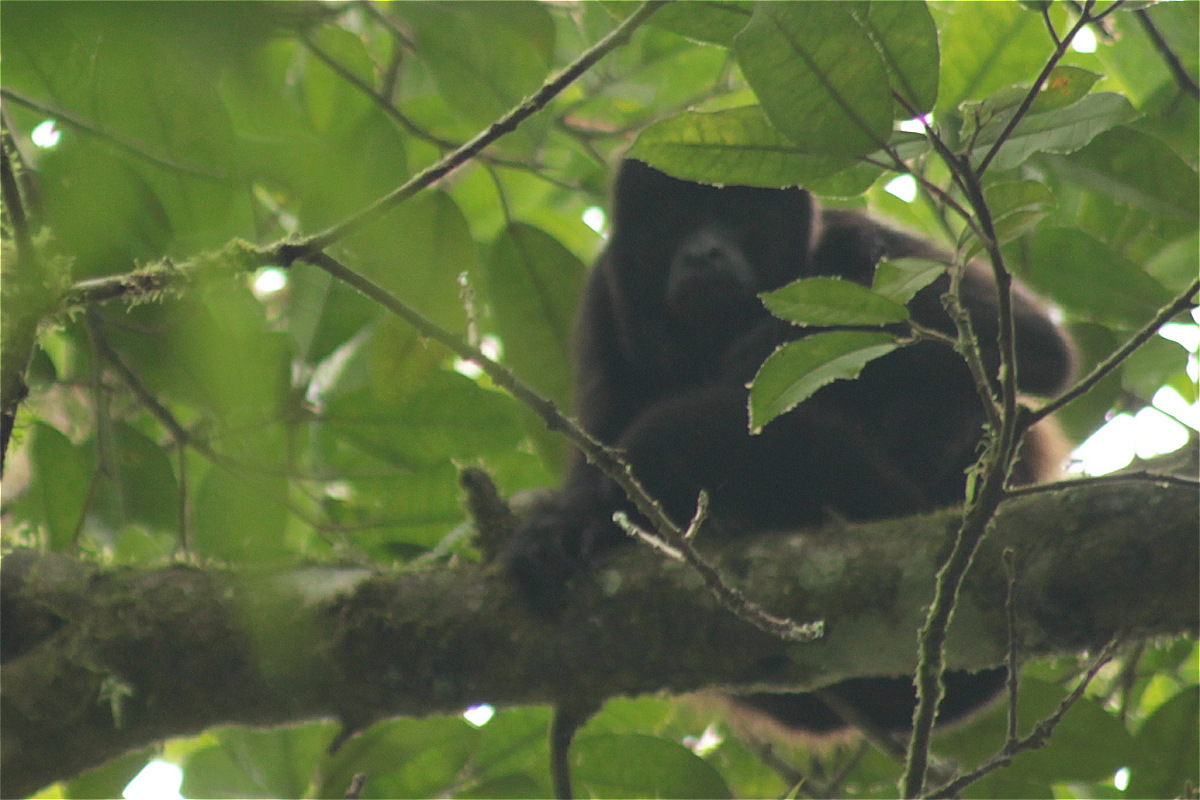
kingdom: Animalia
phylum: Chordata
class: Mammalia
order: Primates
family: Atelidae
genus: Alouatta
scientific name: Alouatta palliata
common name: Mantled howler
